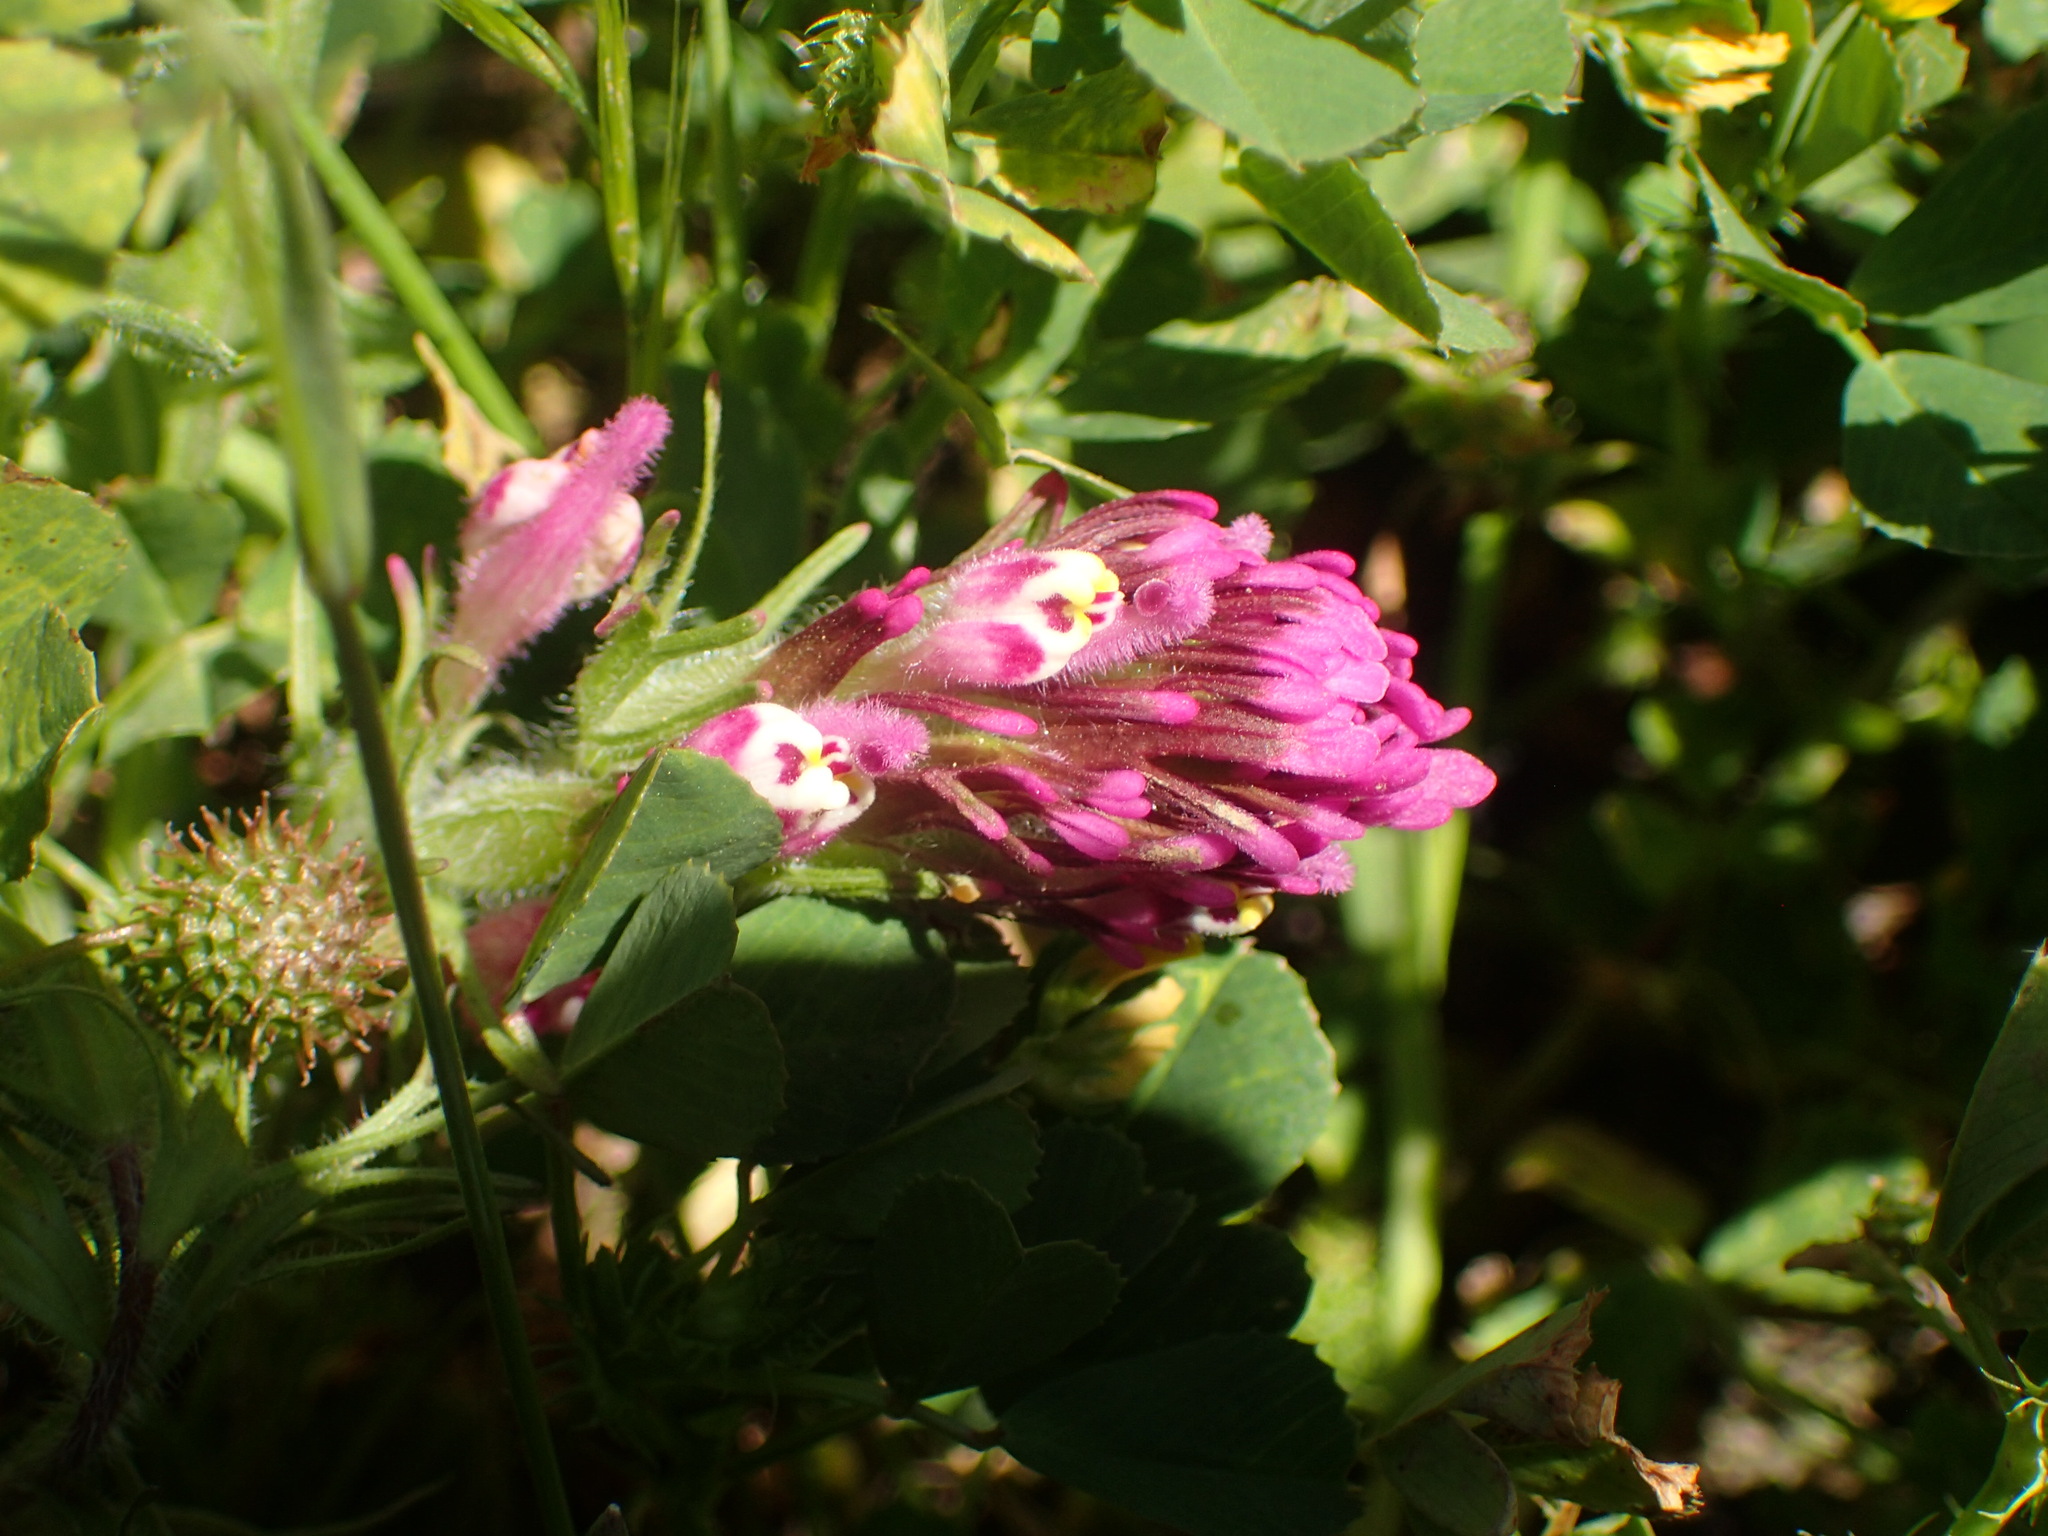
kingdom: Plantae
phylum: Tracheophyta
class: Magnoliopsida
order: Lamiales
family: Orobanchaceae
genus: Castilleja
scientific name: Castilleja exserta
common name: Purple owl-clover
